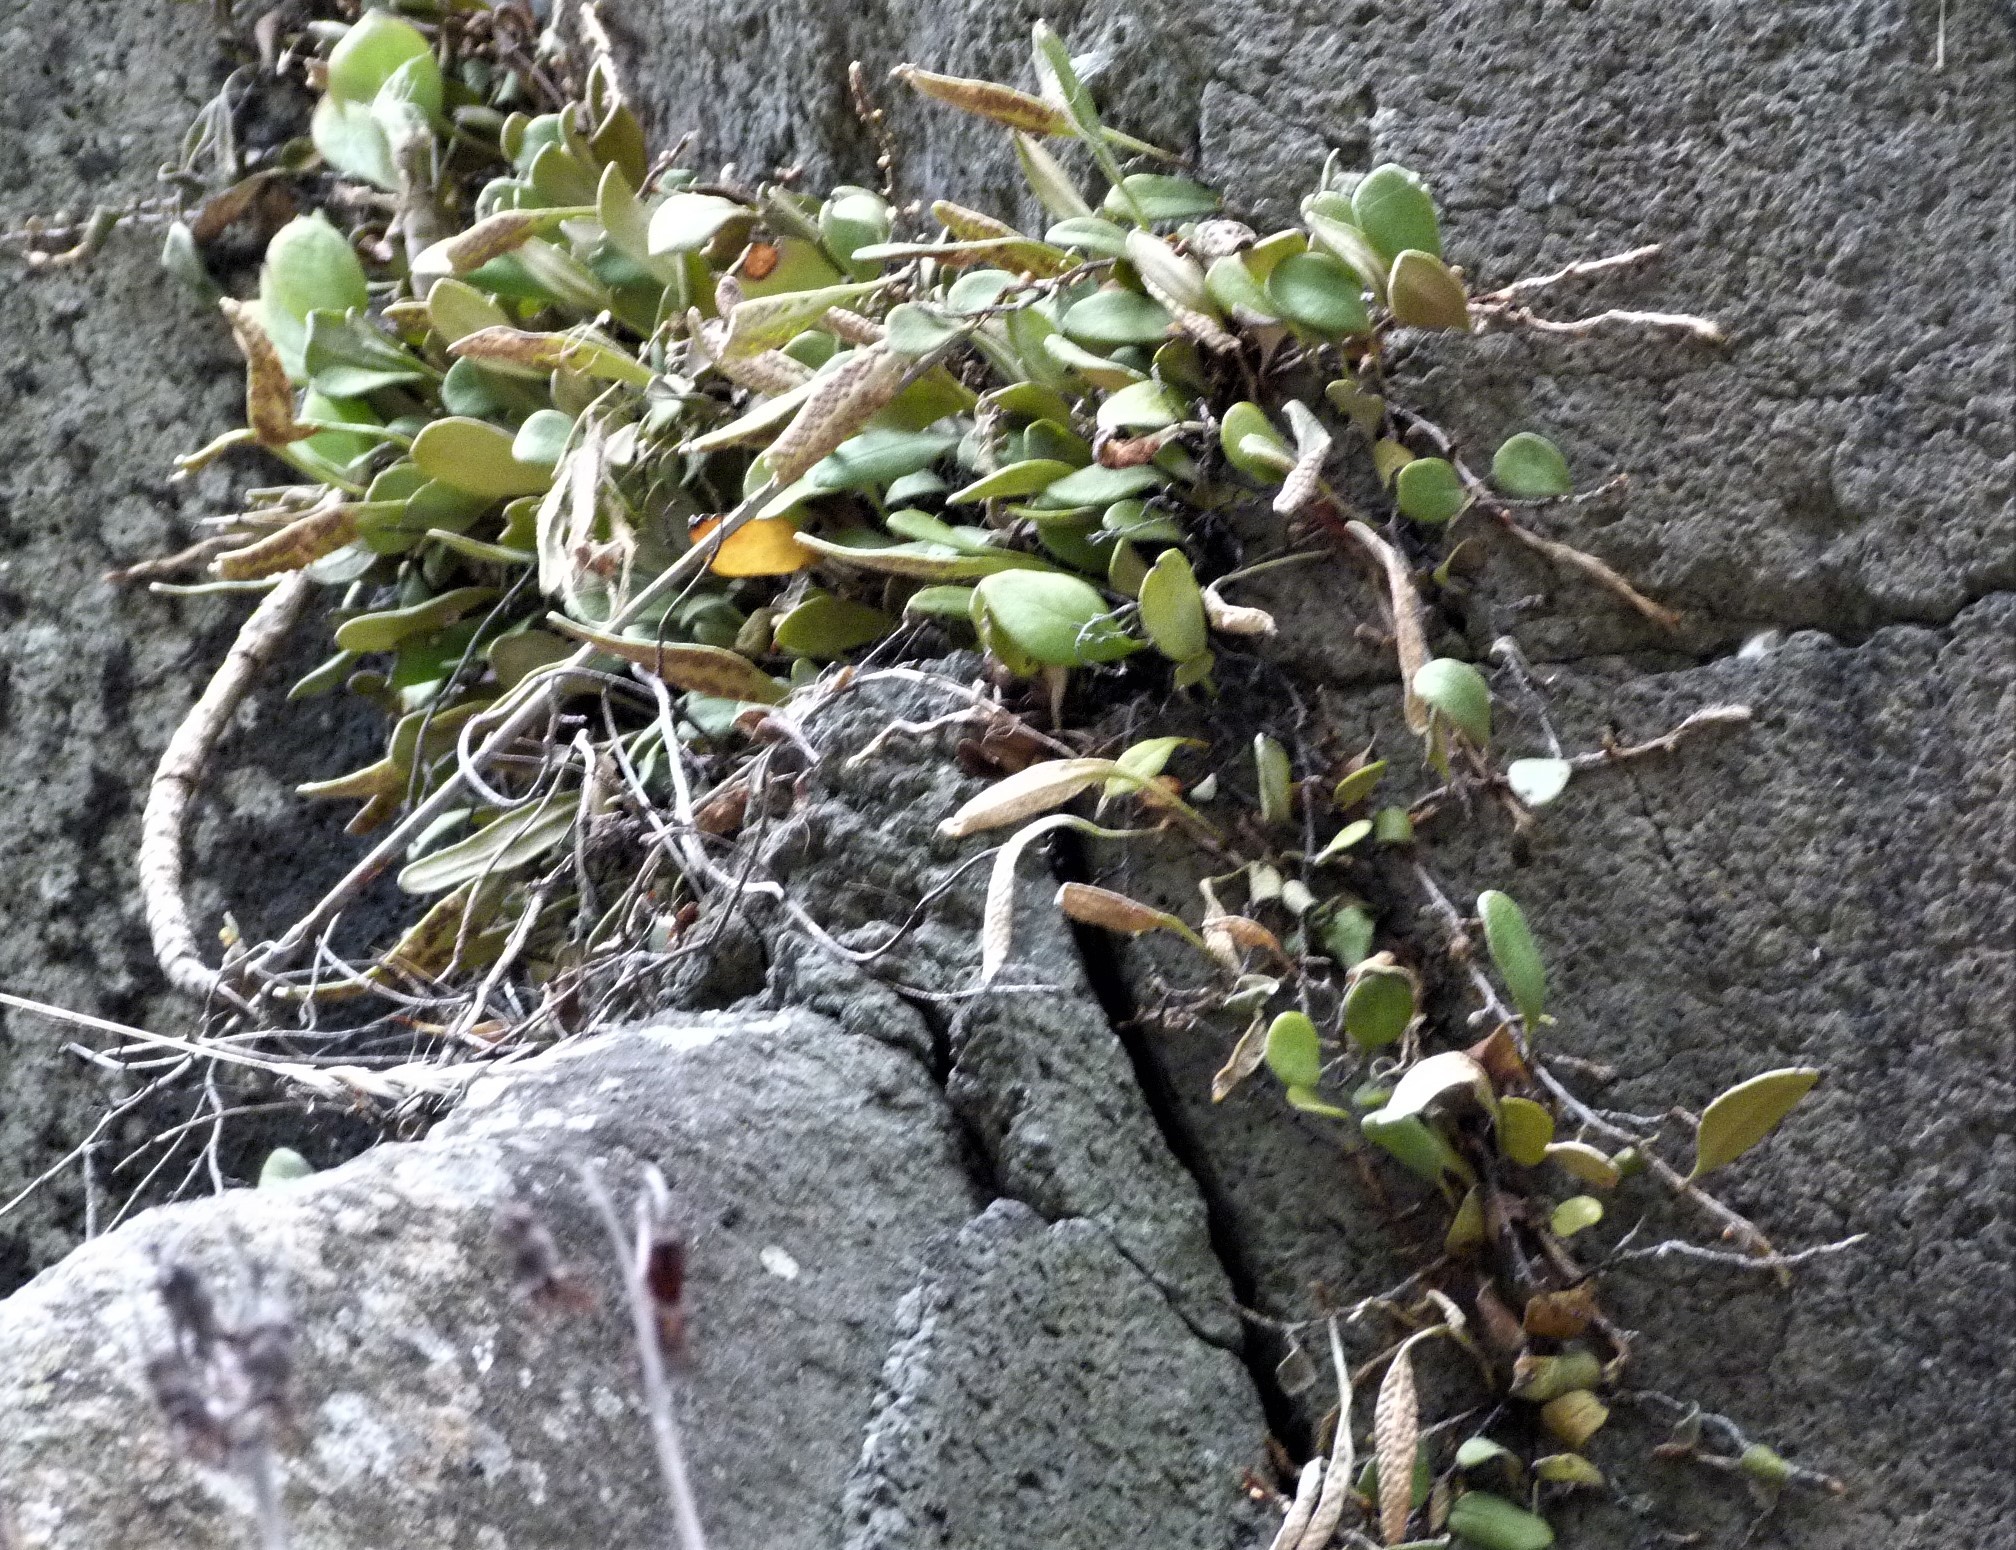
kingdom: Plantae
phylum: Tracheophyta
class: Polypodiopsida
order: Polypodiales
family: Polypodiaceae
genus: Pyrrosia
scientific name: Pyrrosia eleagnifolia
